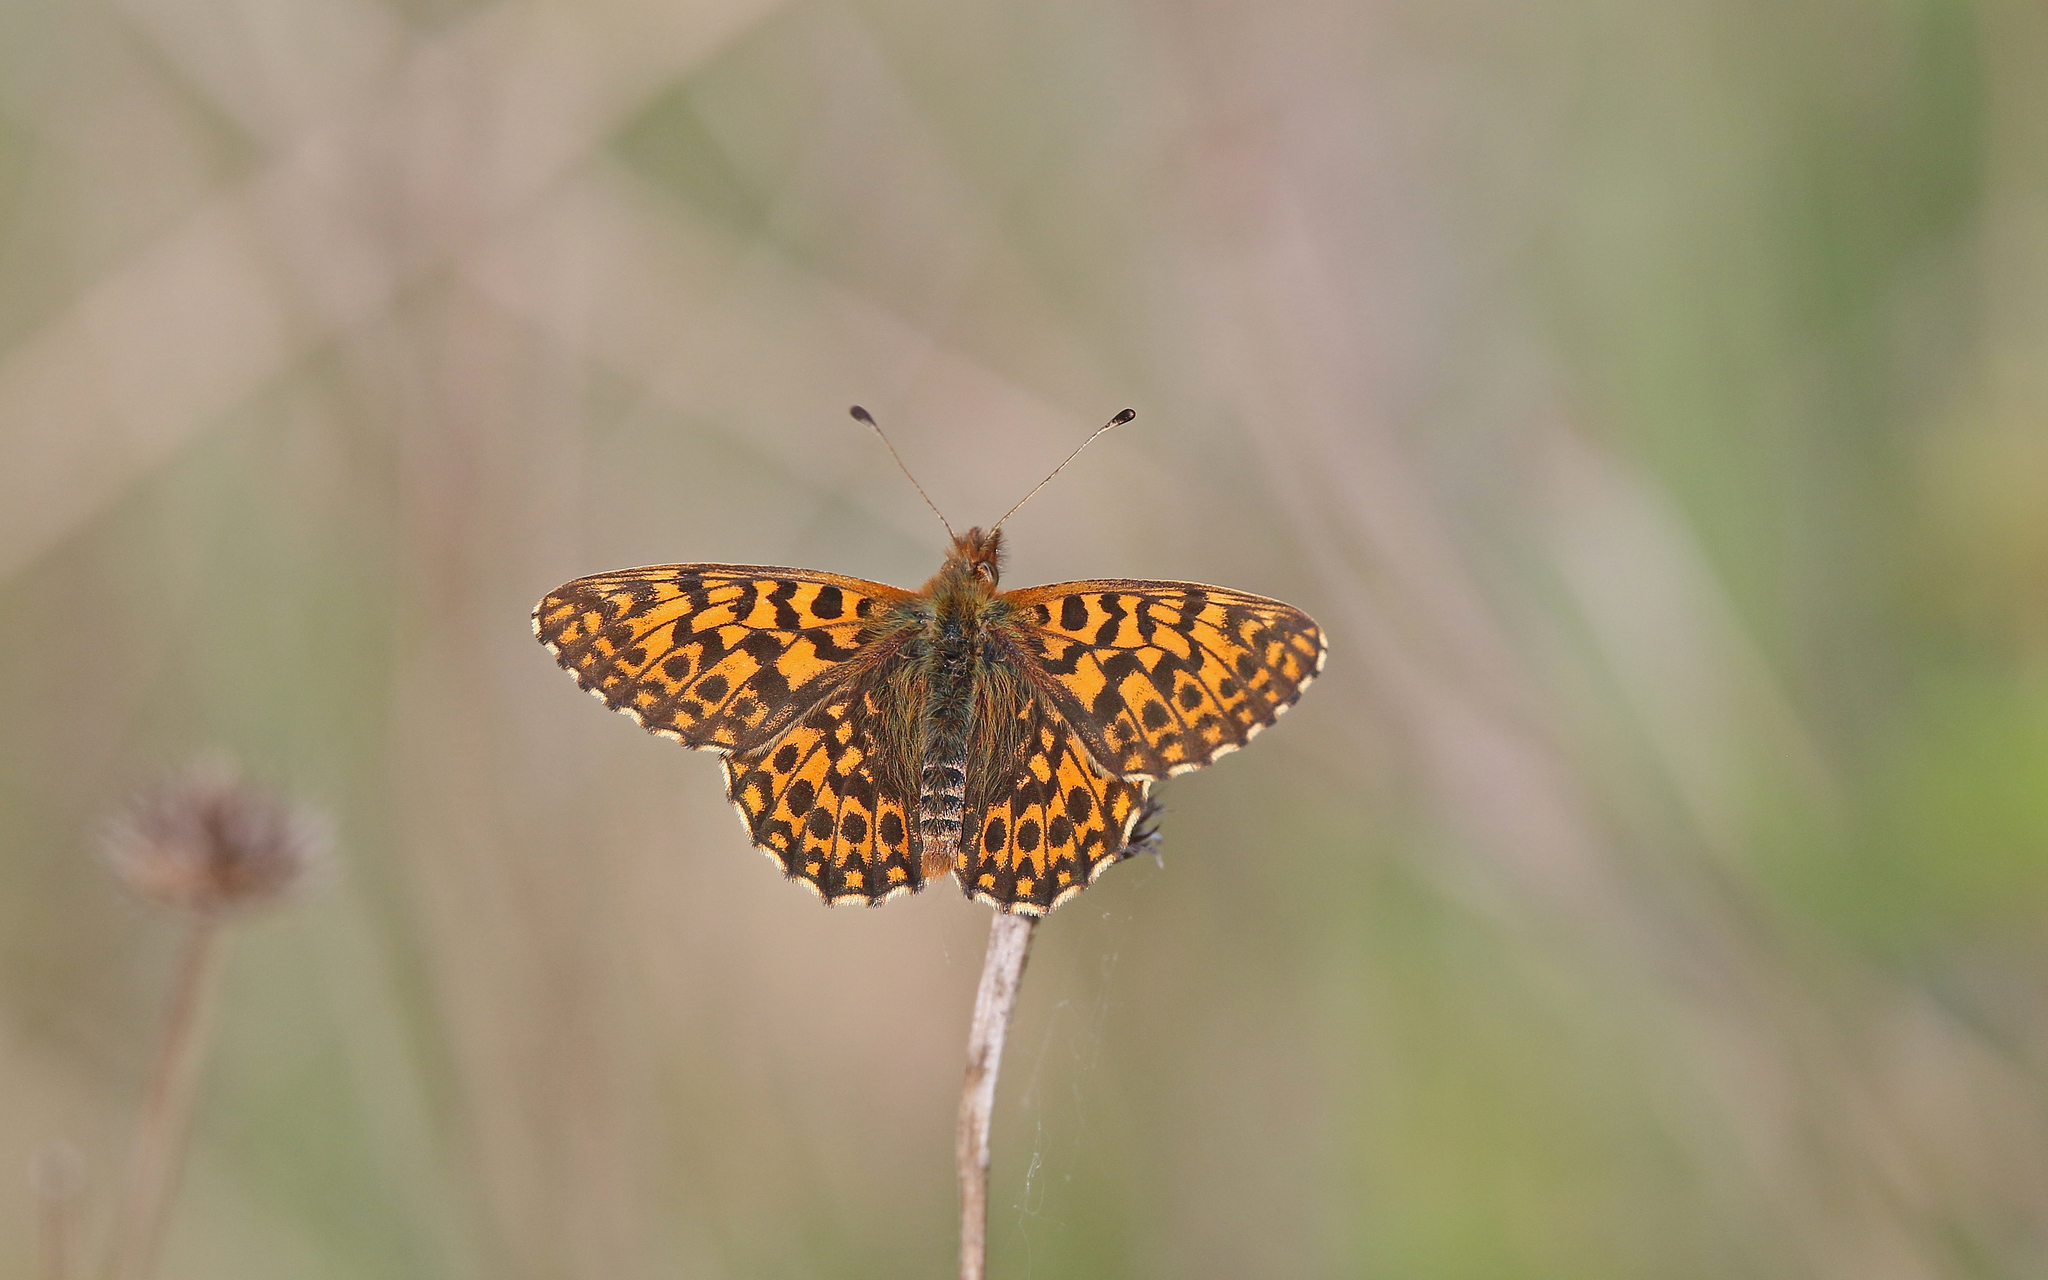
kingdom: Animalia
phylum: Arthropoda
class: Insecta
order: Lepidoptera
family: Nymphalidae
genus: Boloria
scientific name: Boloria dia
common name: Weaver's fritillary
